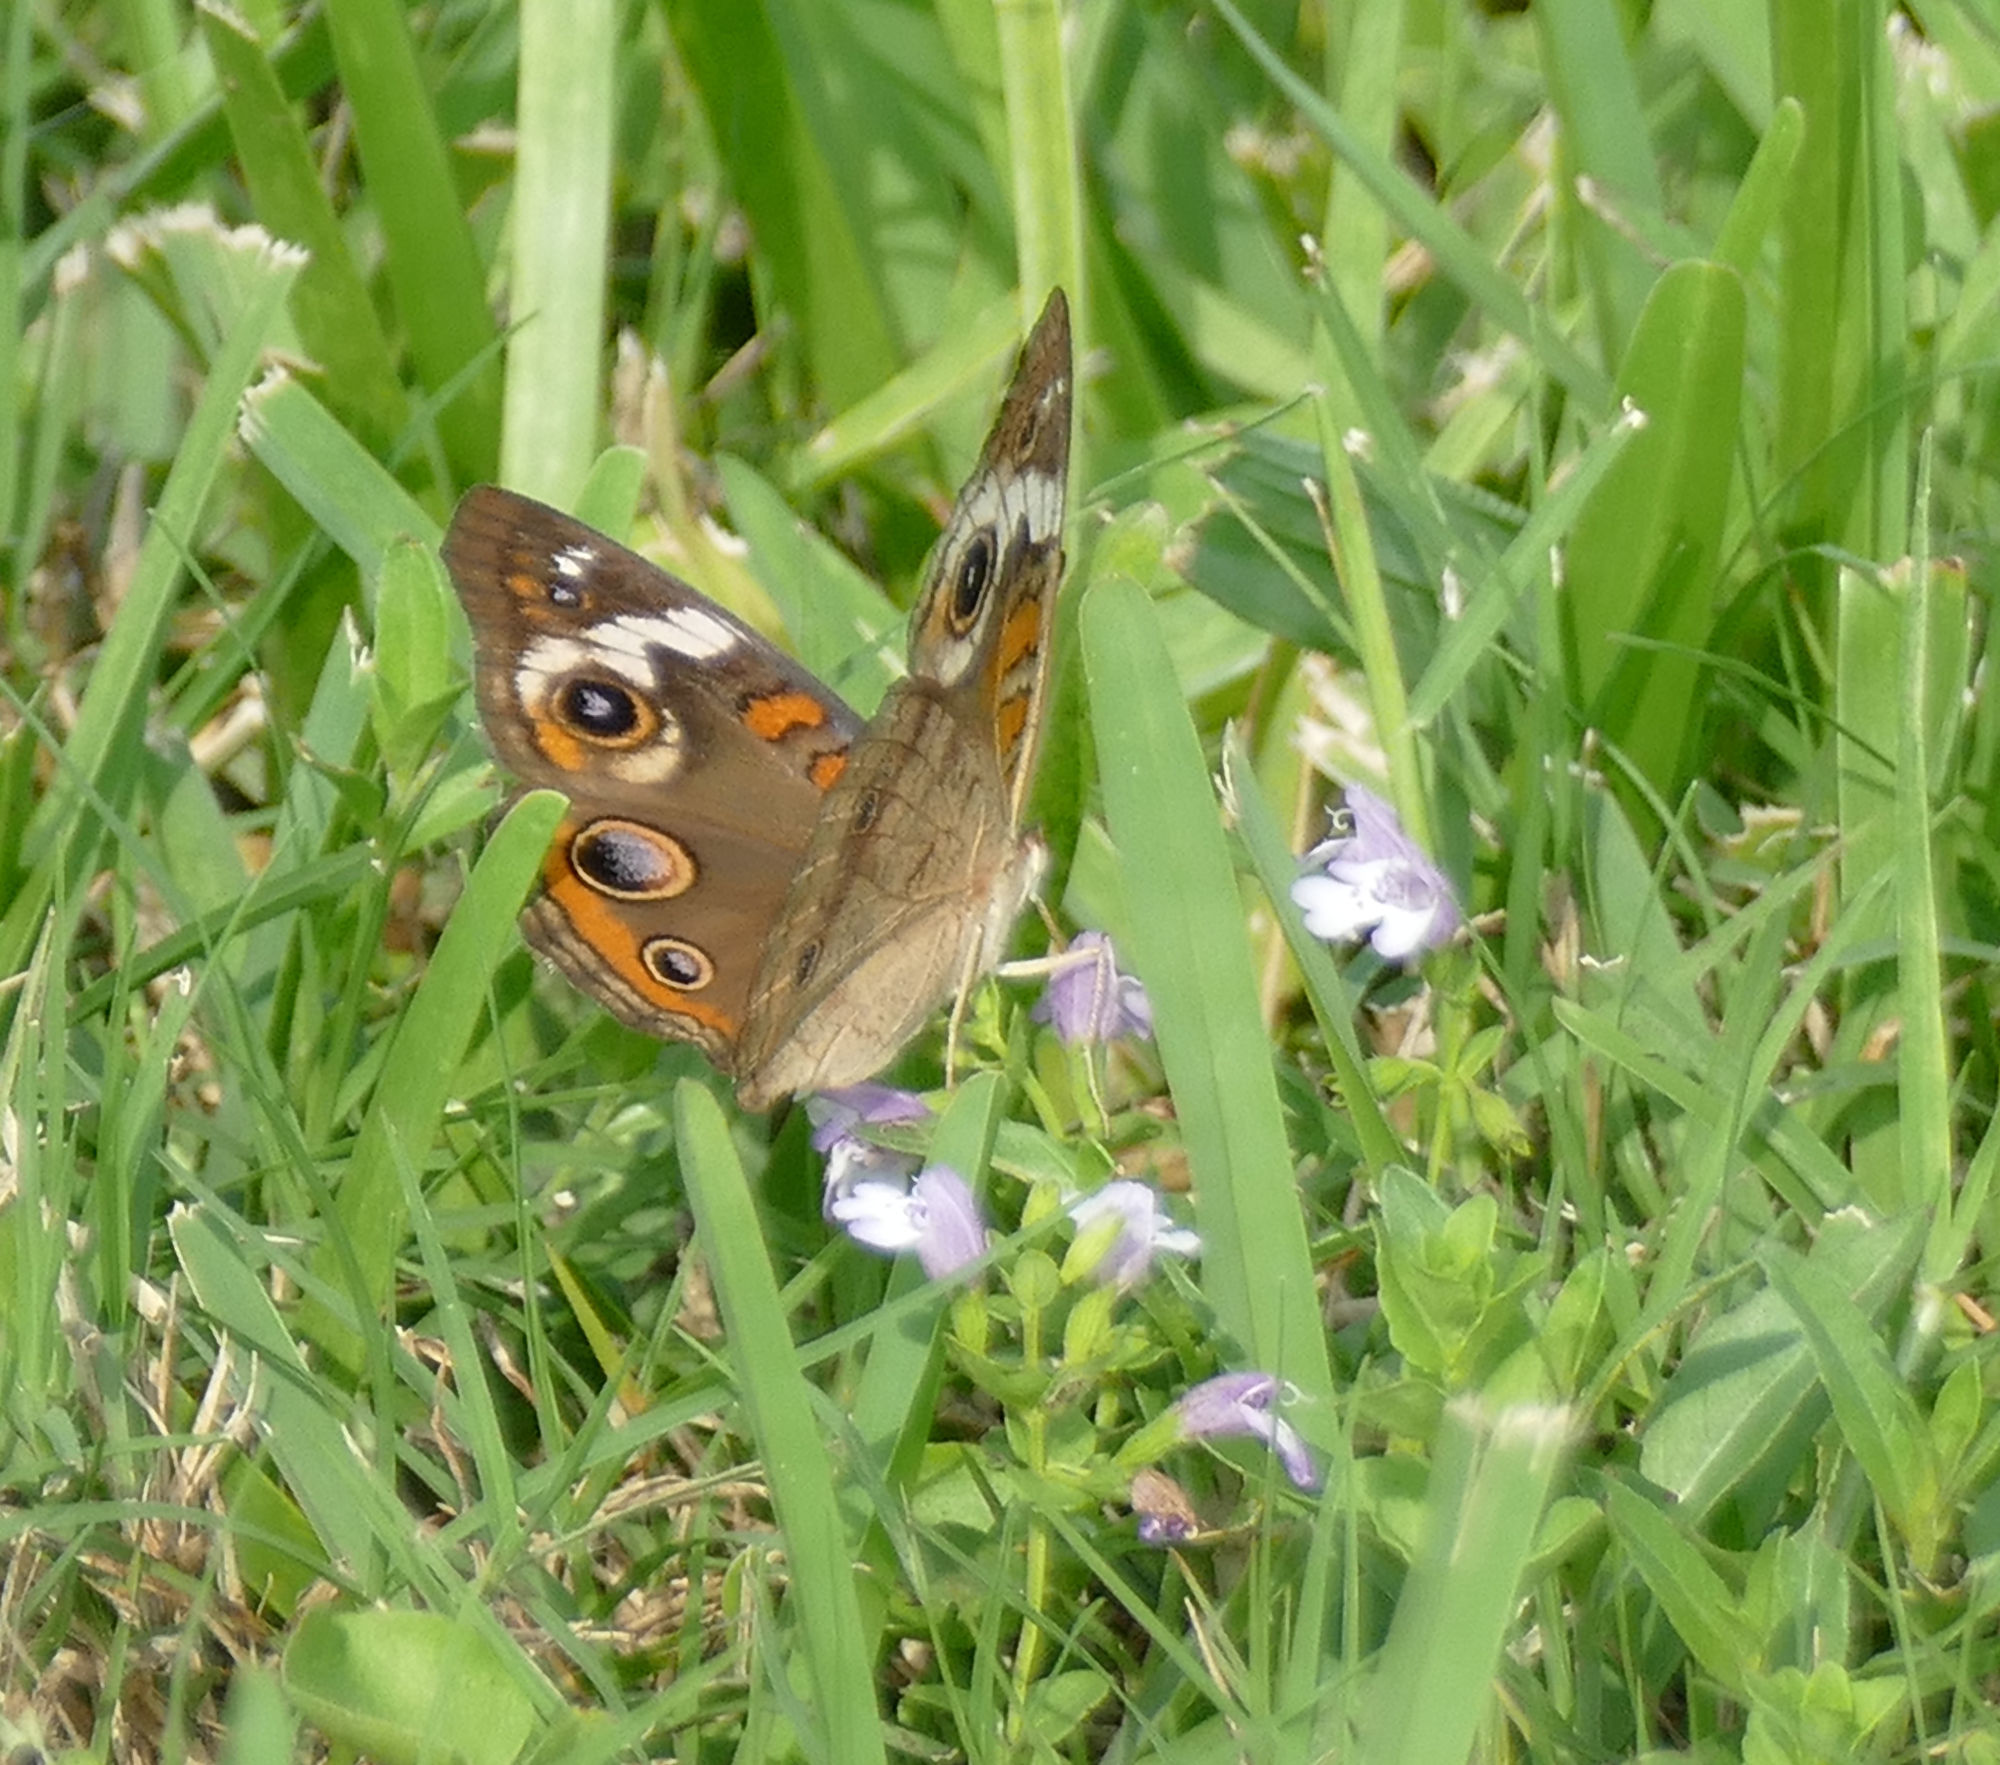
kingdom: Animalia
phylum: Arthropoda
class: Insecta
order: Lepidoptera
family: Nymphalidae
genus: Junonia
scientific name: Junonia coenia
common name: Common buckeye
